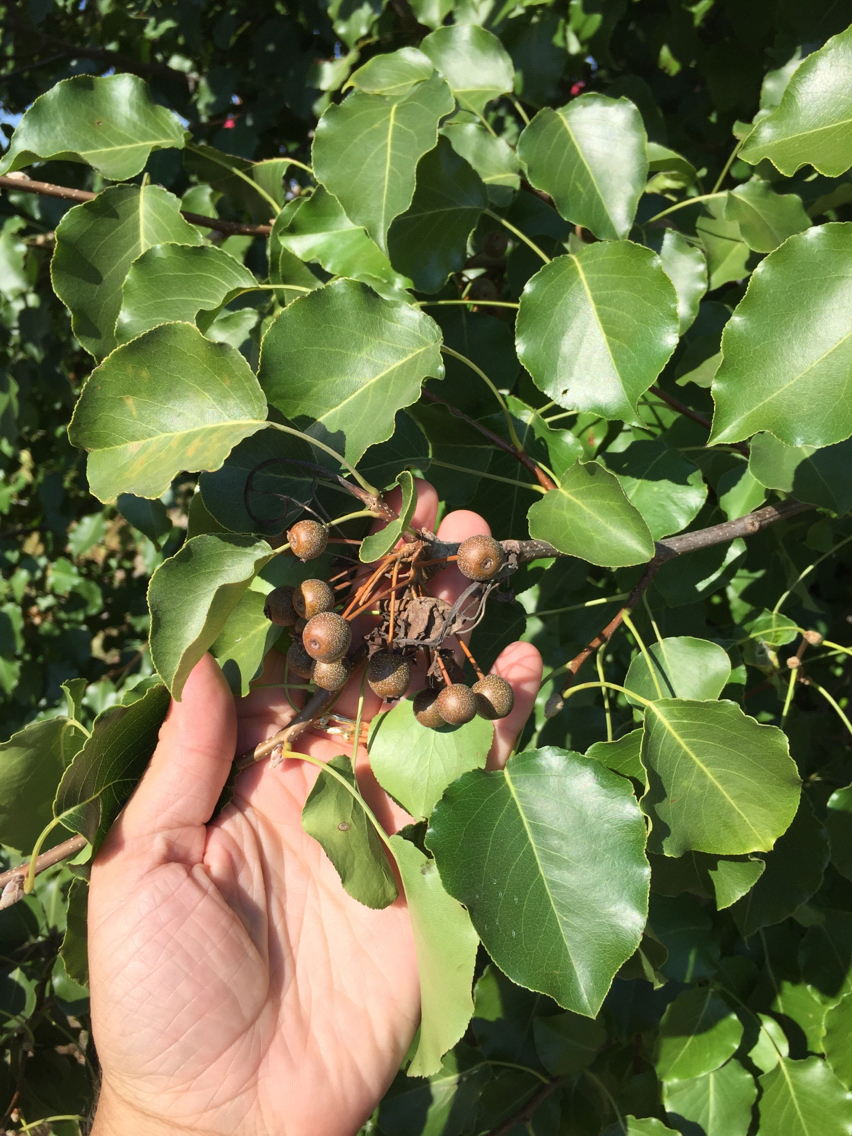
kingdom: Plantae
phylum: Tracheophyta
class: Magnoliopsida
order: Rosales
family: Rosaceae
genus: Pyrus
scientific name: Pyrus calleryana
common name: Callery pear
